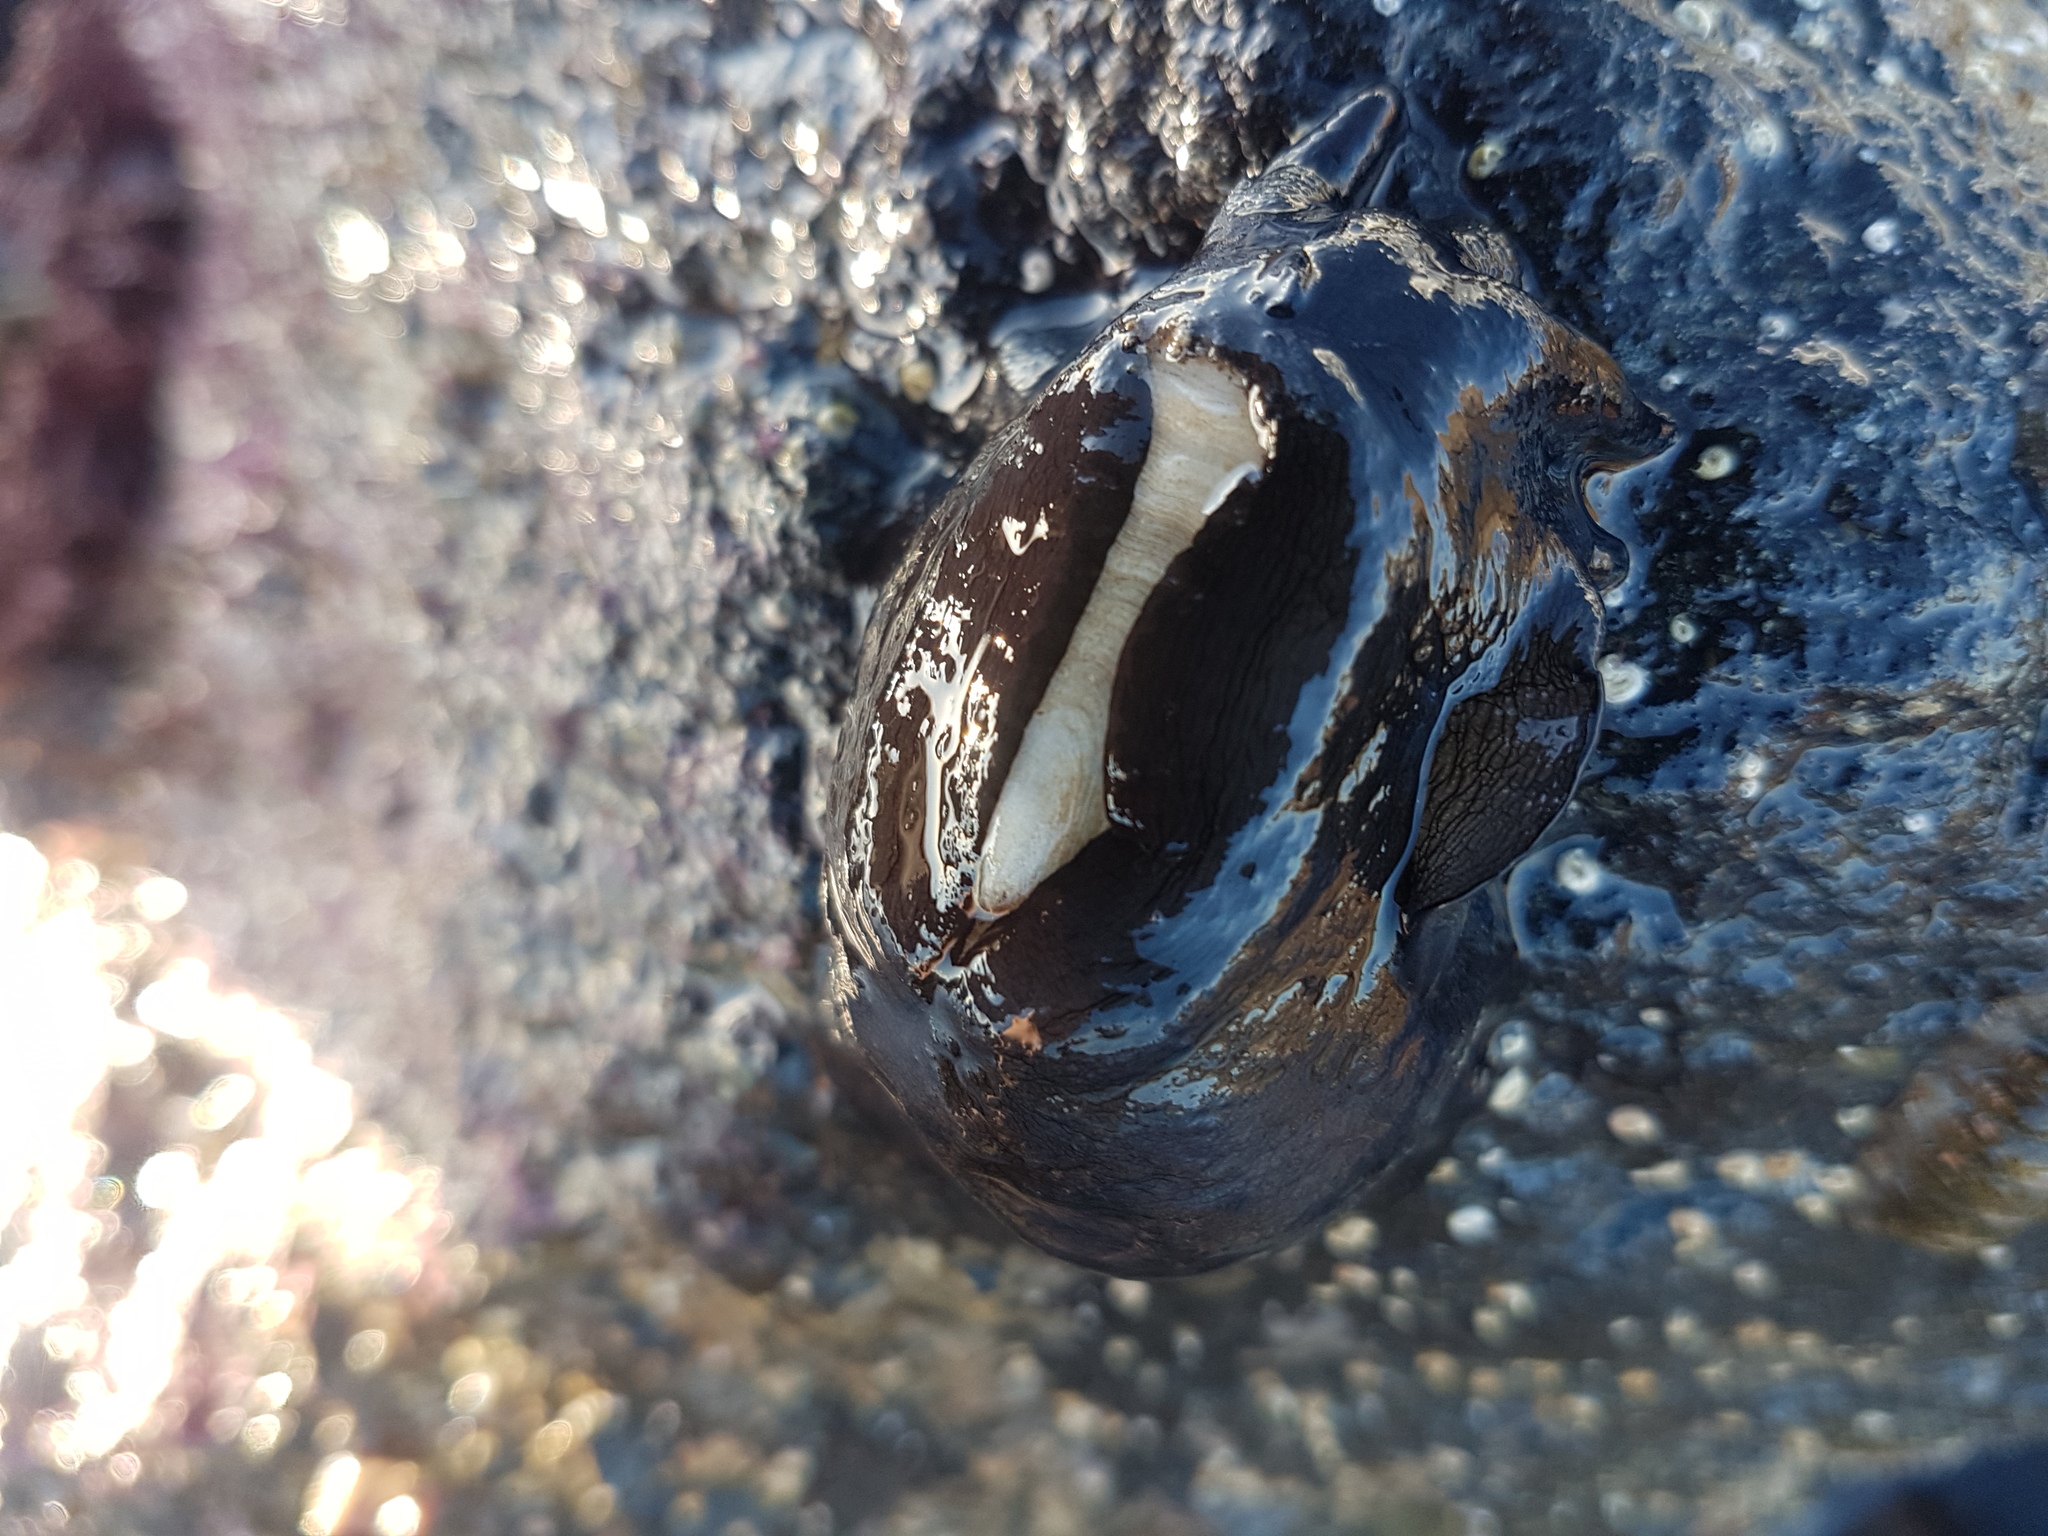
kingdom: Animalia
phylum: Mollusca
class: Gastropoda
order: Lepetellida
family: Fissurellidae
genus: Scutus
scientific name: Scutus breviculus
